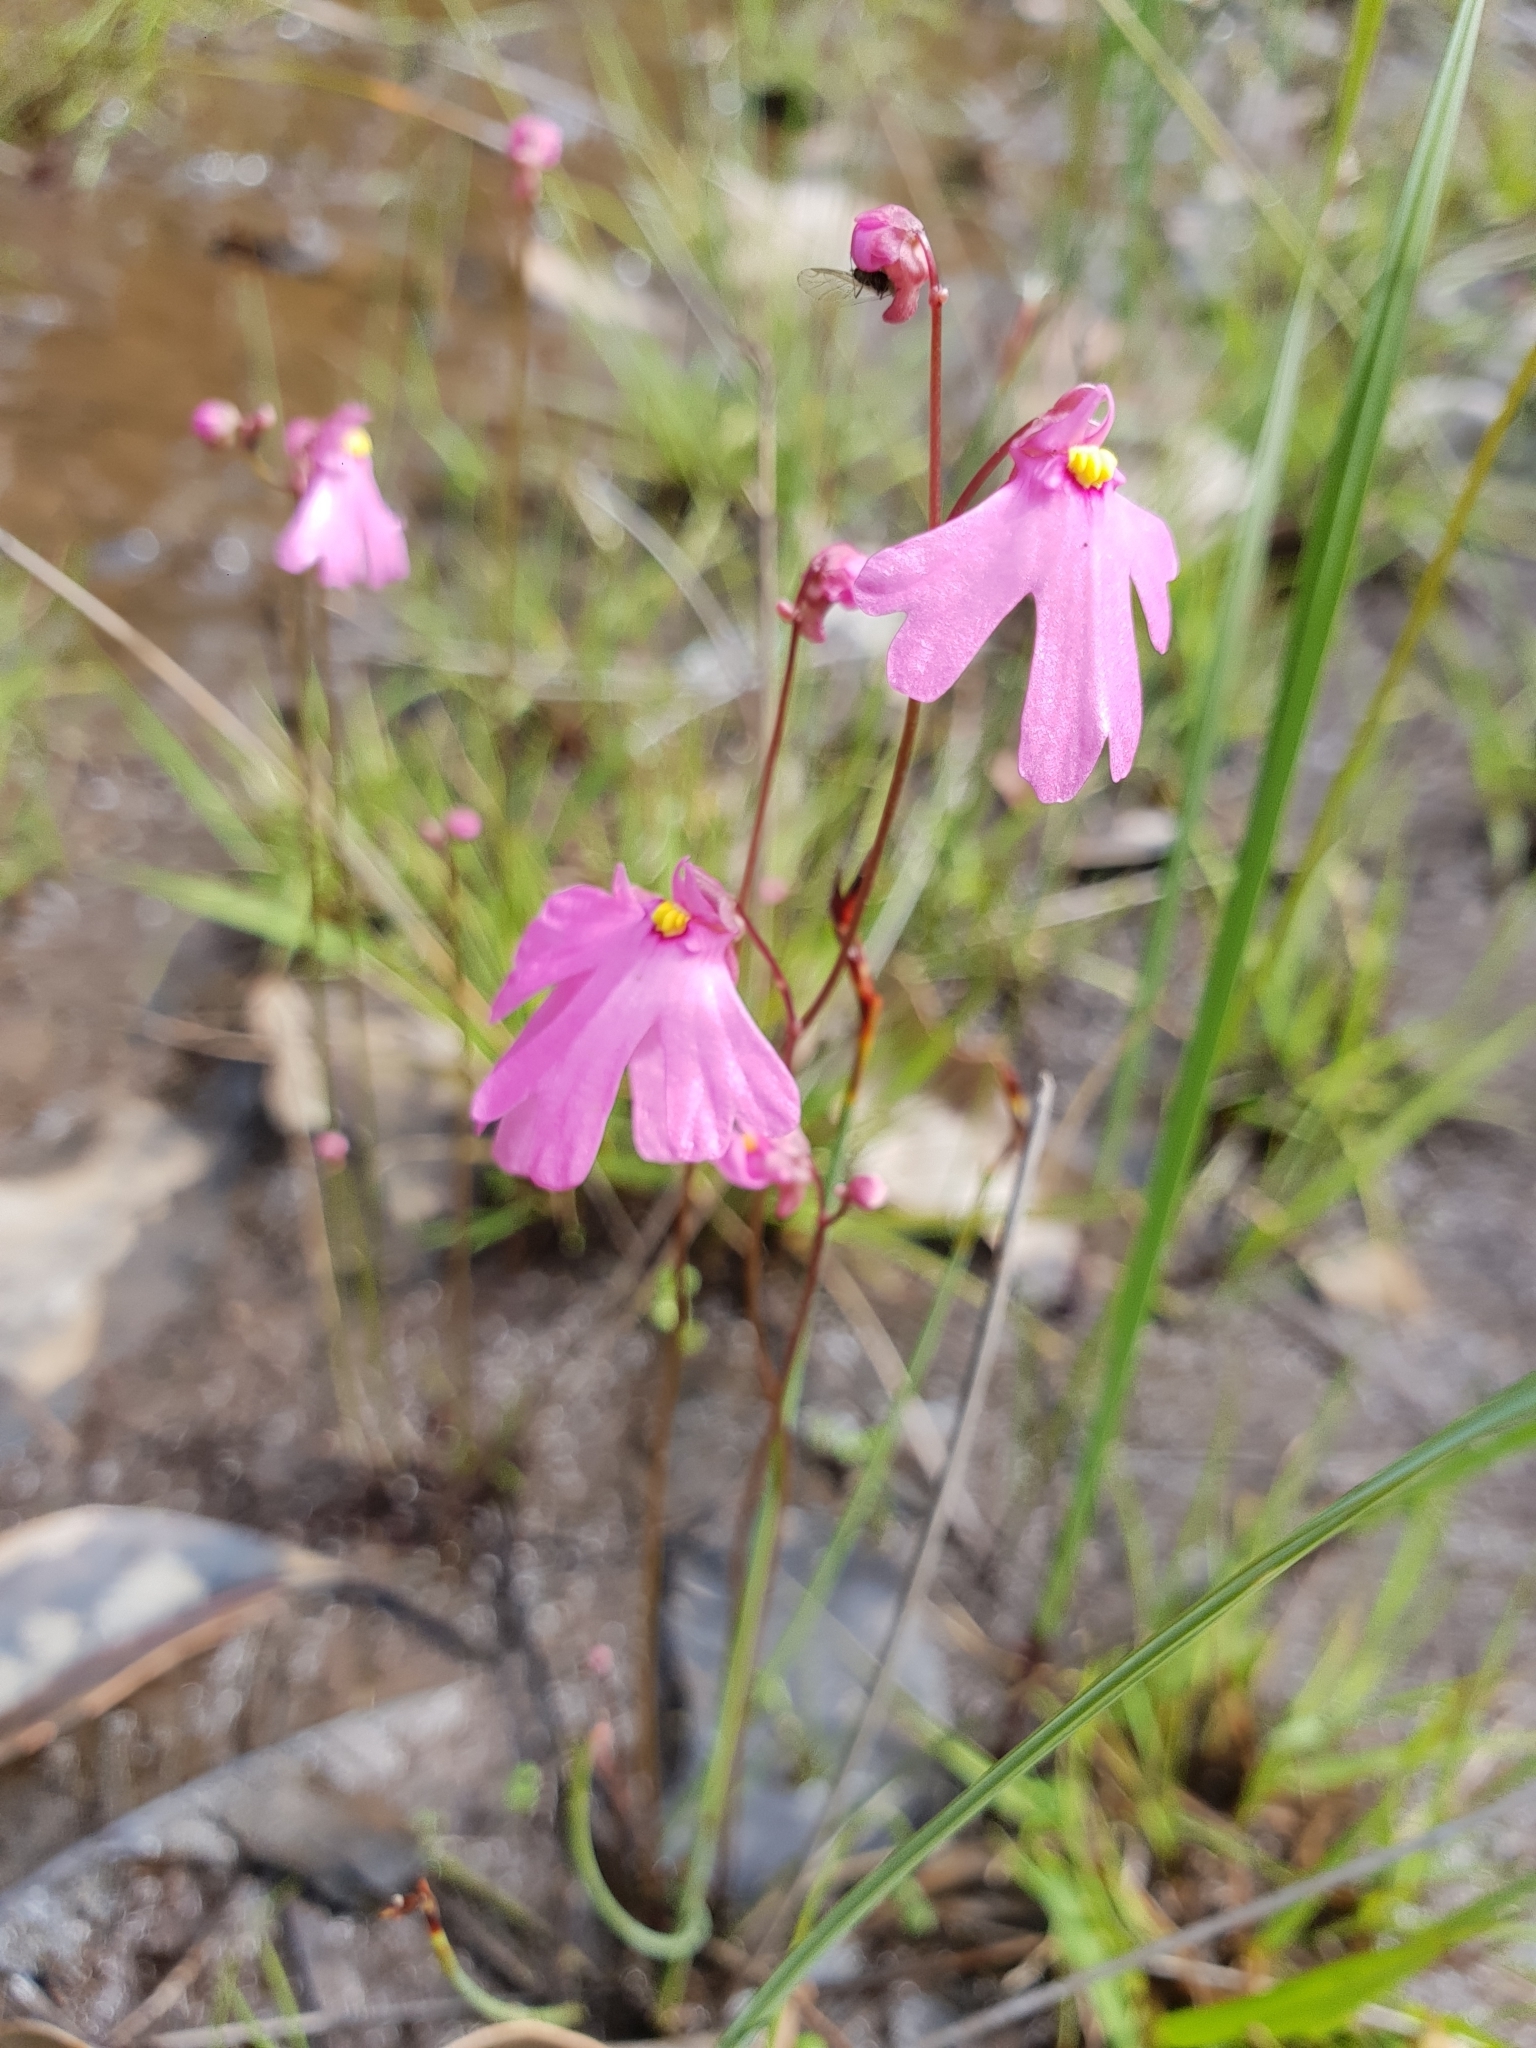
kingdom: Plantae
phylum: Tracheophyta
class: Magnoliopsida
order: Lamiales
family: Lentibulariaceae
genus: Utricularia
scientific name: Utricularia multifida
